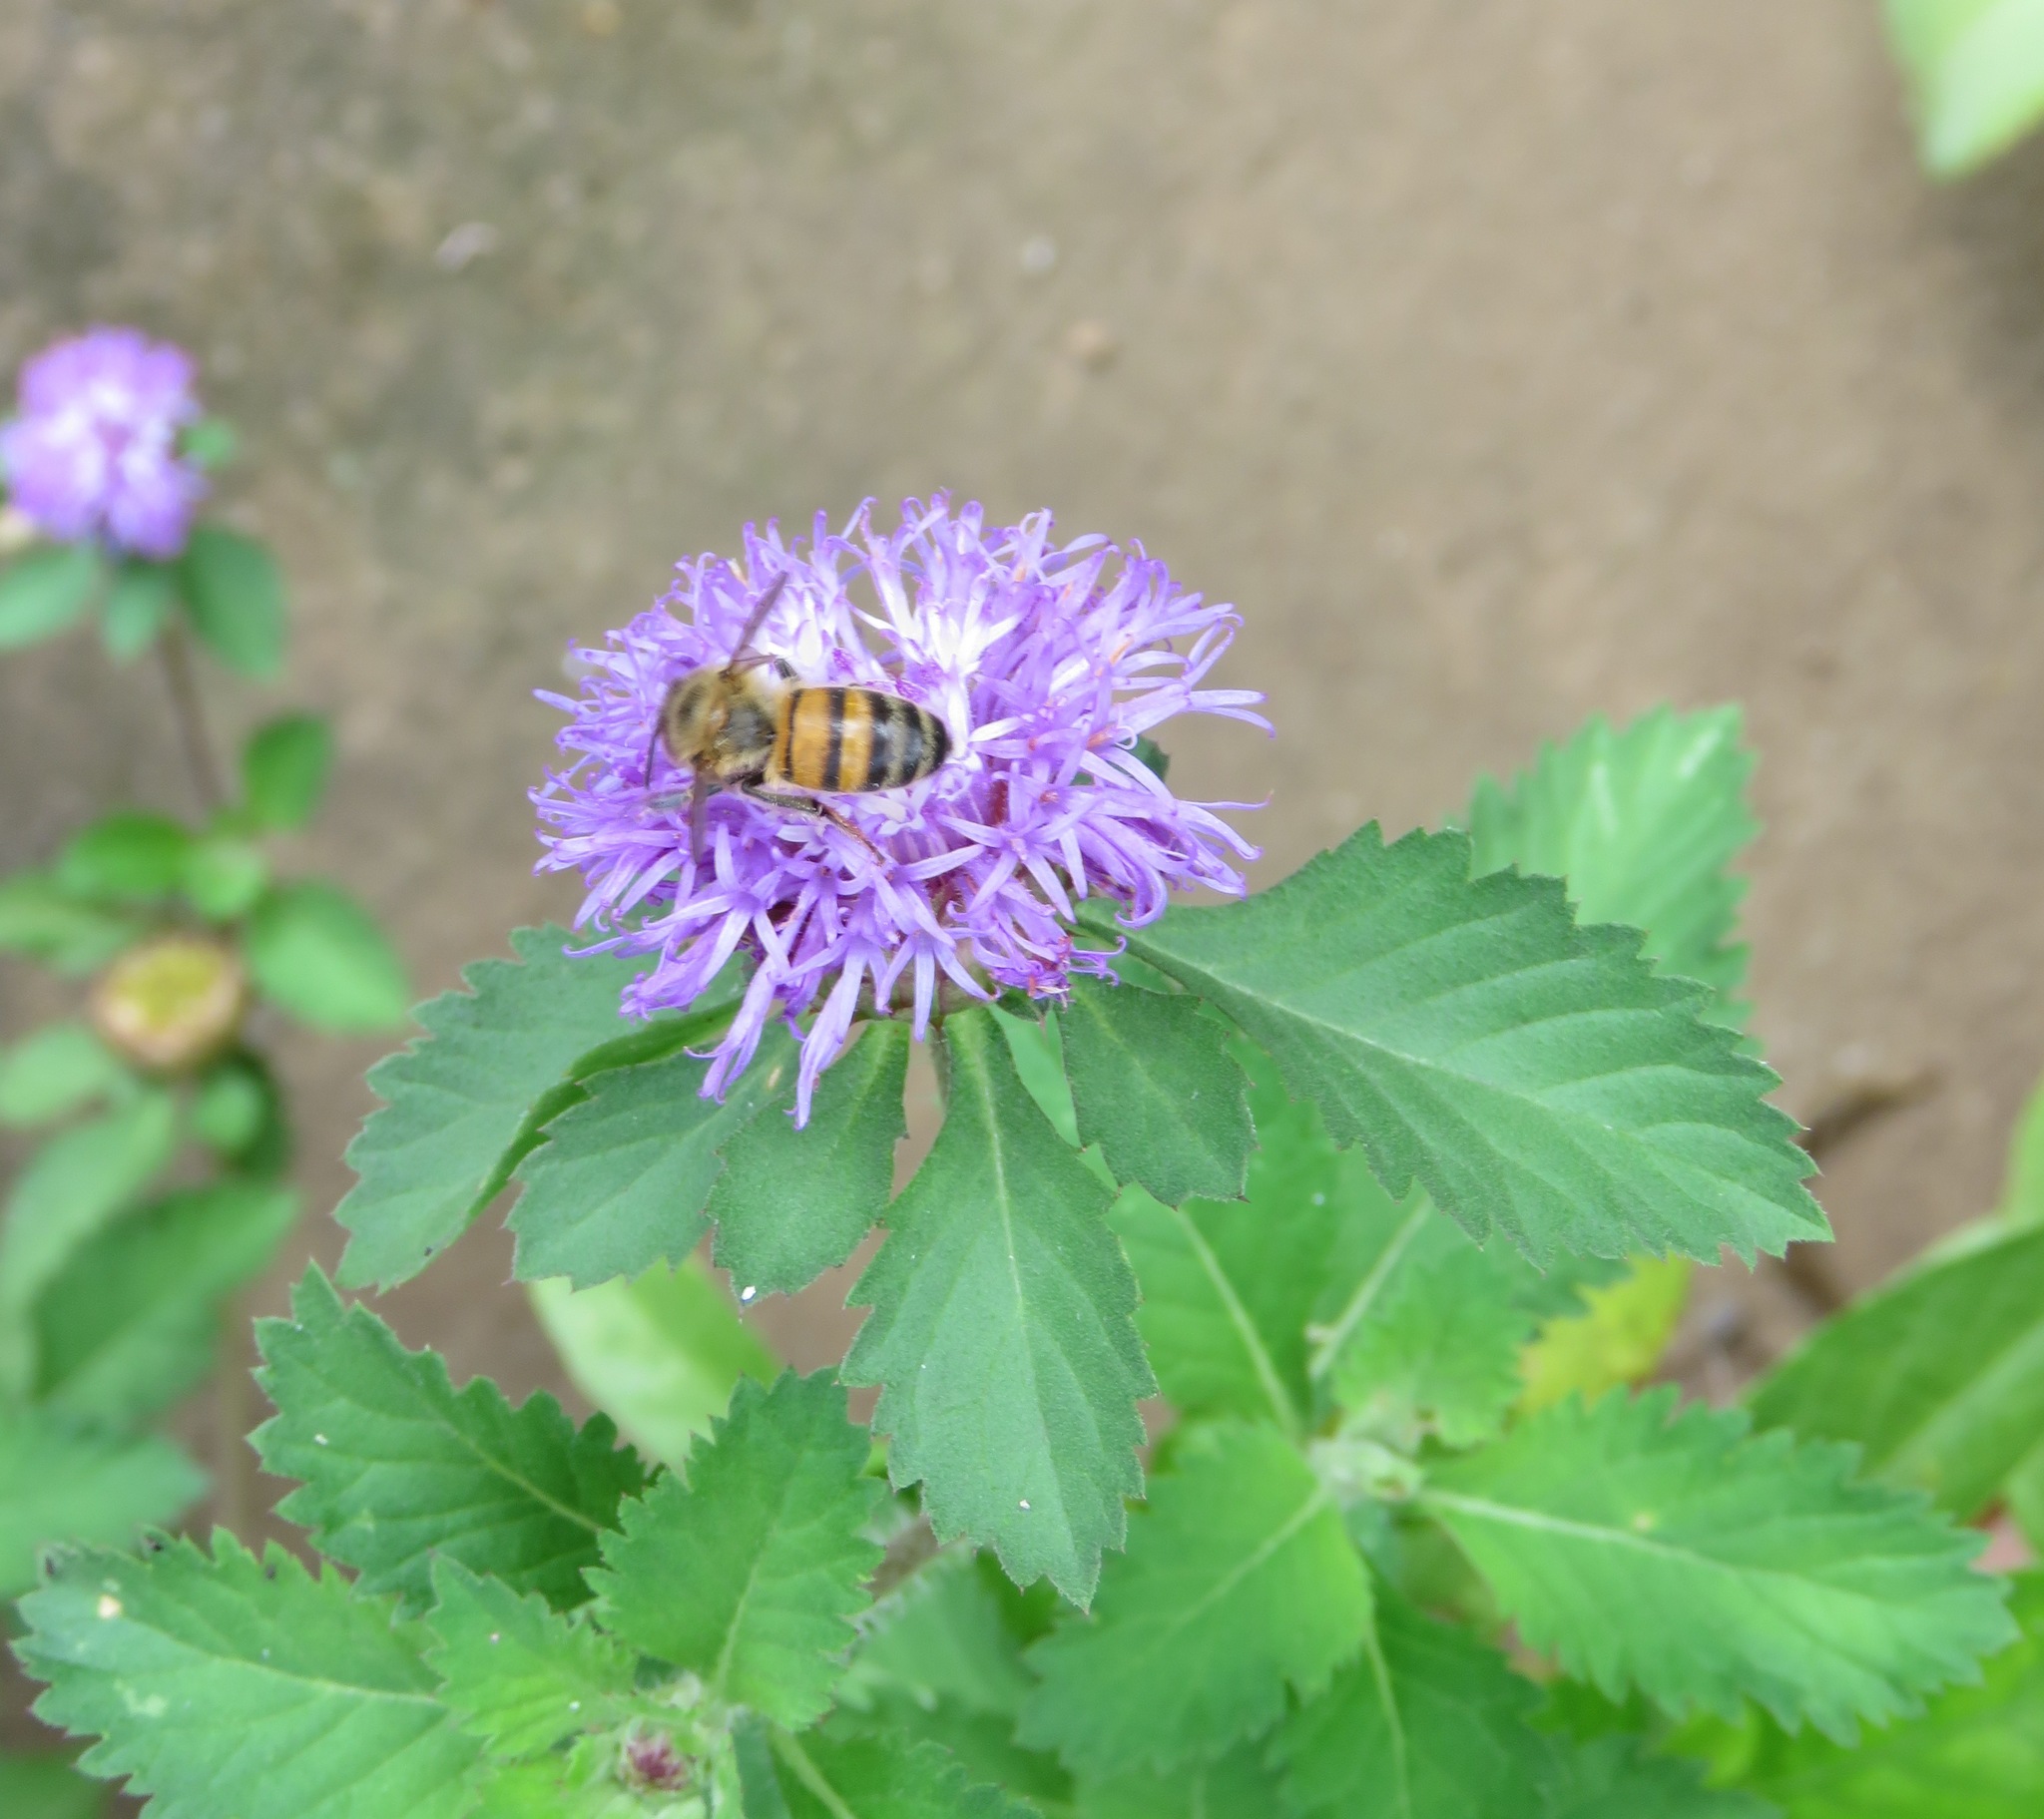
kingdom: Animalia
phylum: Arthropoda
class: Insecta
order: Hymenoptera
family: Apidae
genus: Apis
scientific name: Apis mellifera
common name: Honey bee
